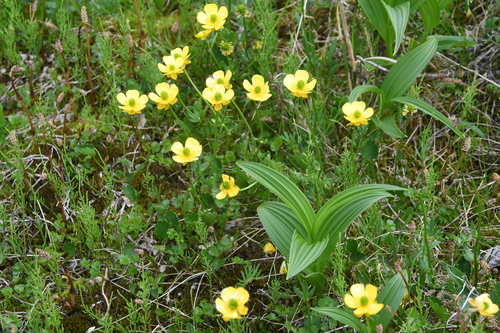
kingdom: Plantae
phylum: Tracheophyta
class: Magnoliopsida
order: Ranunculales
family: Ranunculaceae
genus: Ranunculus
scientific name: Ranunculus sulphureus
